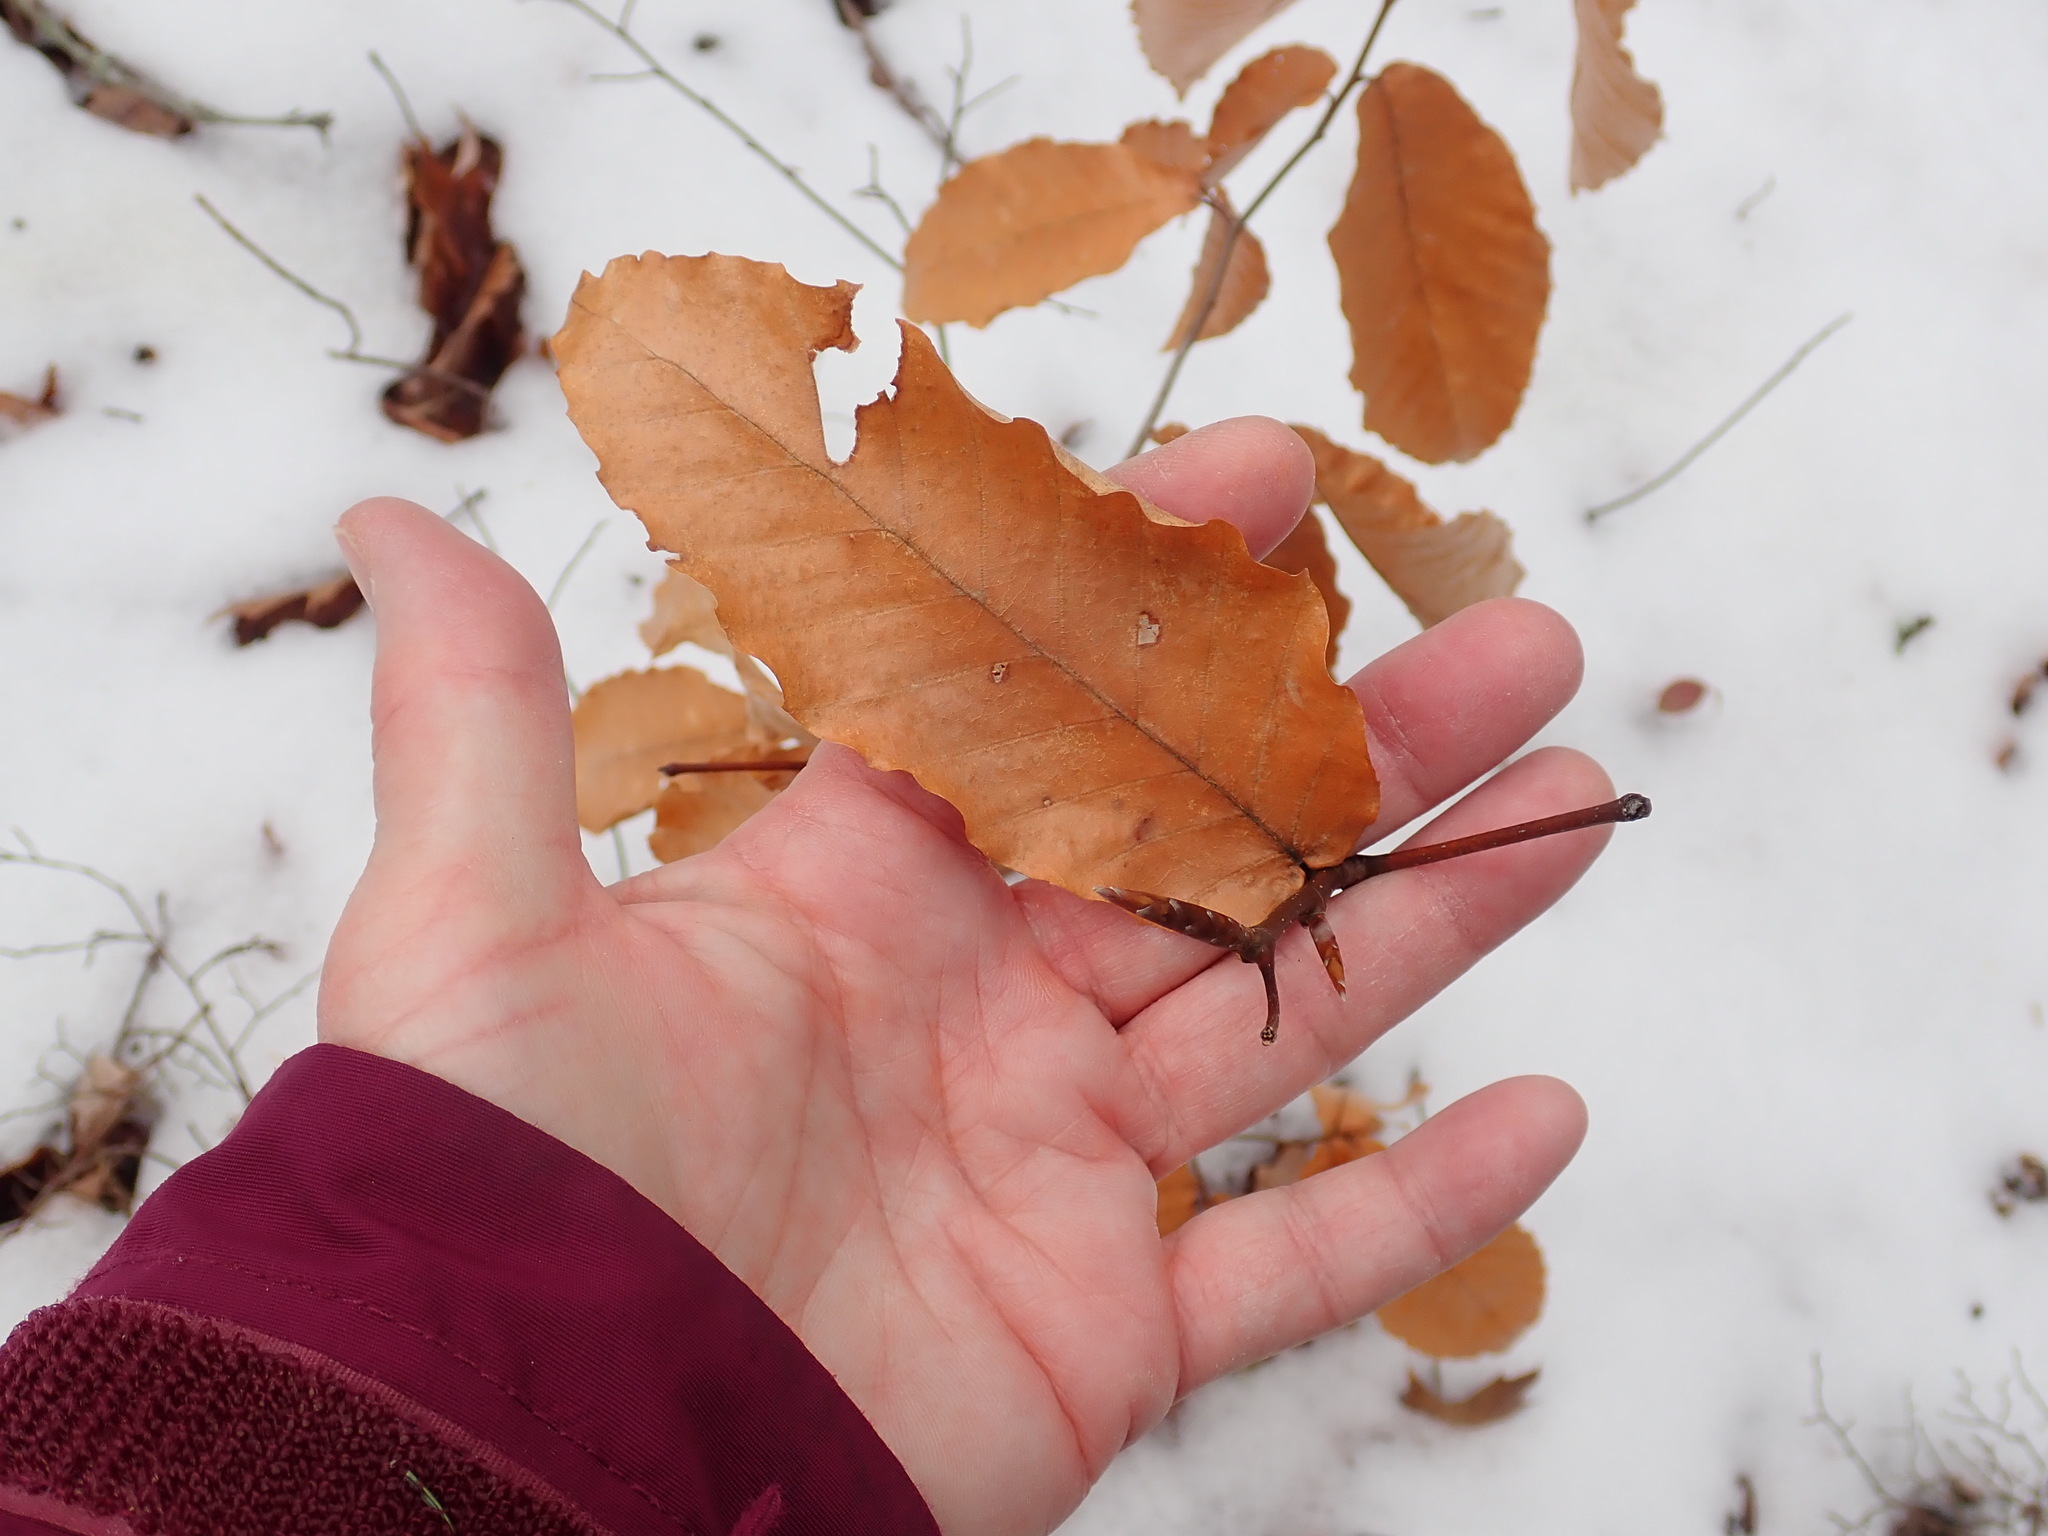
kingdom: Plantae
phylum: Tracheophyta
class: Magnoliopsida
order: Fagales
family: Fagaceae
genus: Fagus
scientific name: Fagus grandifolia
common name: American beech
